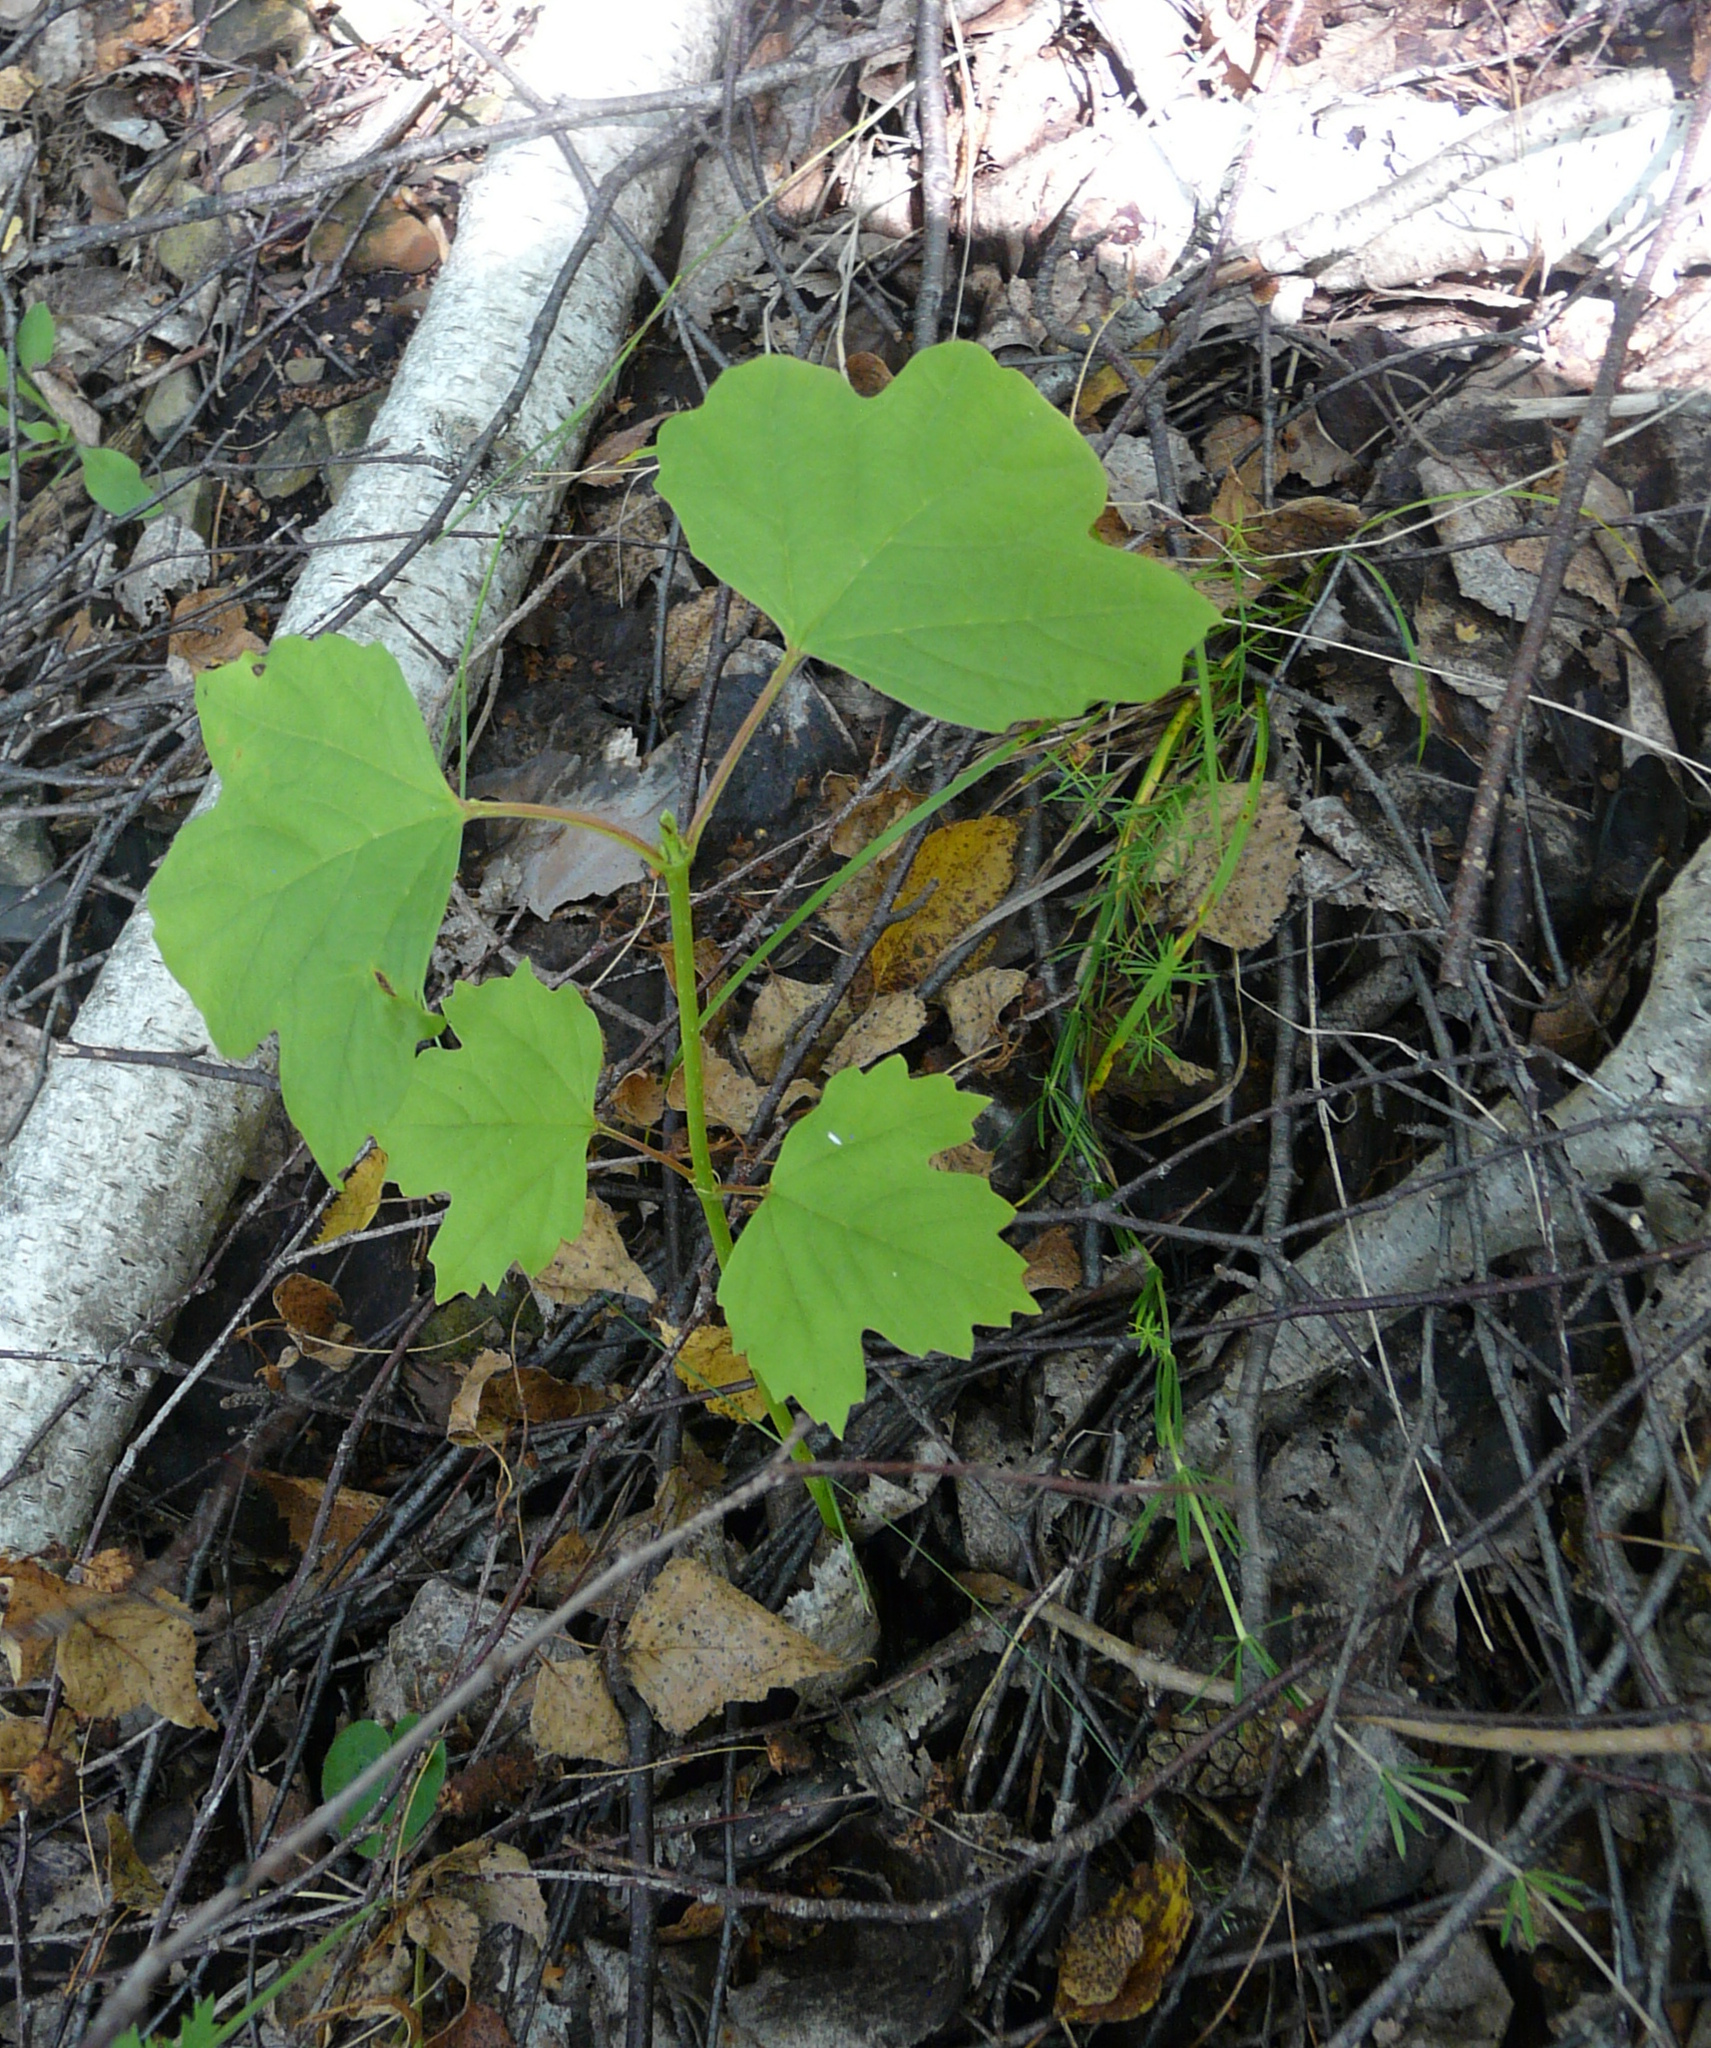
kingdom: Plantae
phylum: Tracheophyta
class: Magnoliopsida
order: Dipsacales
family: Viburnaceae
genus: Viburnum
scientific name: Viburnum opulus
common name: Guelder-rose
